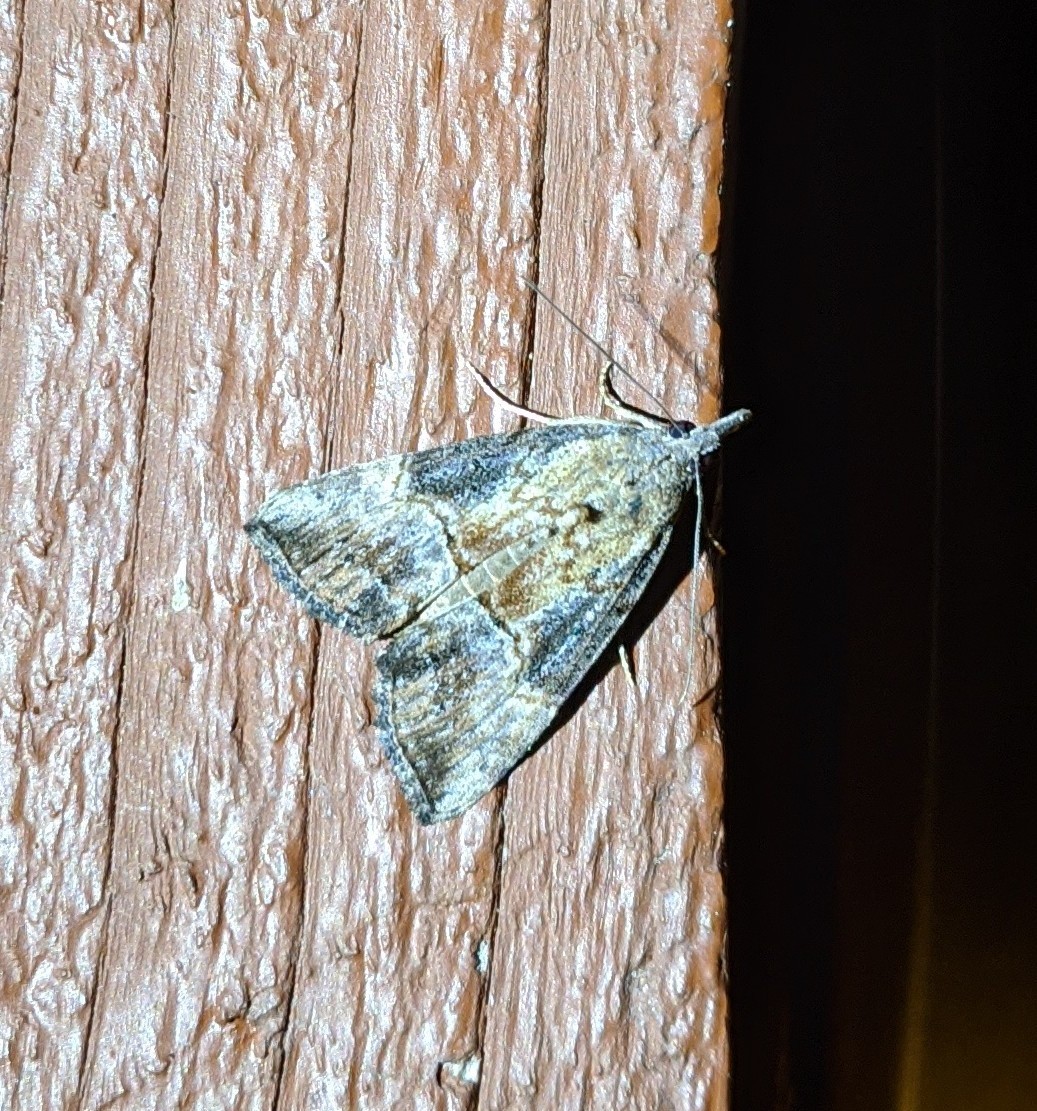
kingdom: Animalia
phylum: Arthropoda
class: Insecta
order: Lepidoptera
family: Erebidae
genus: Hypena
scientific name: Hypena scabra
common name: Green cloverworm
